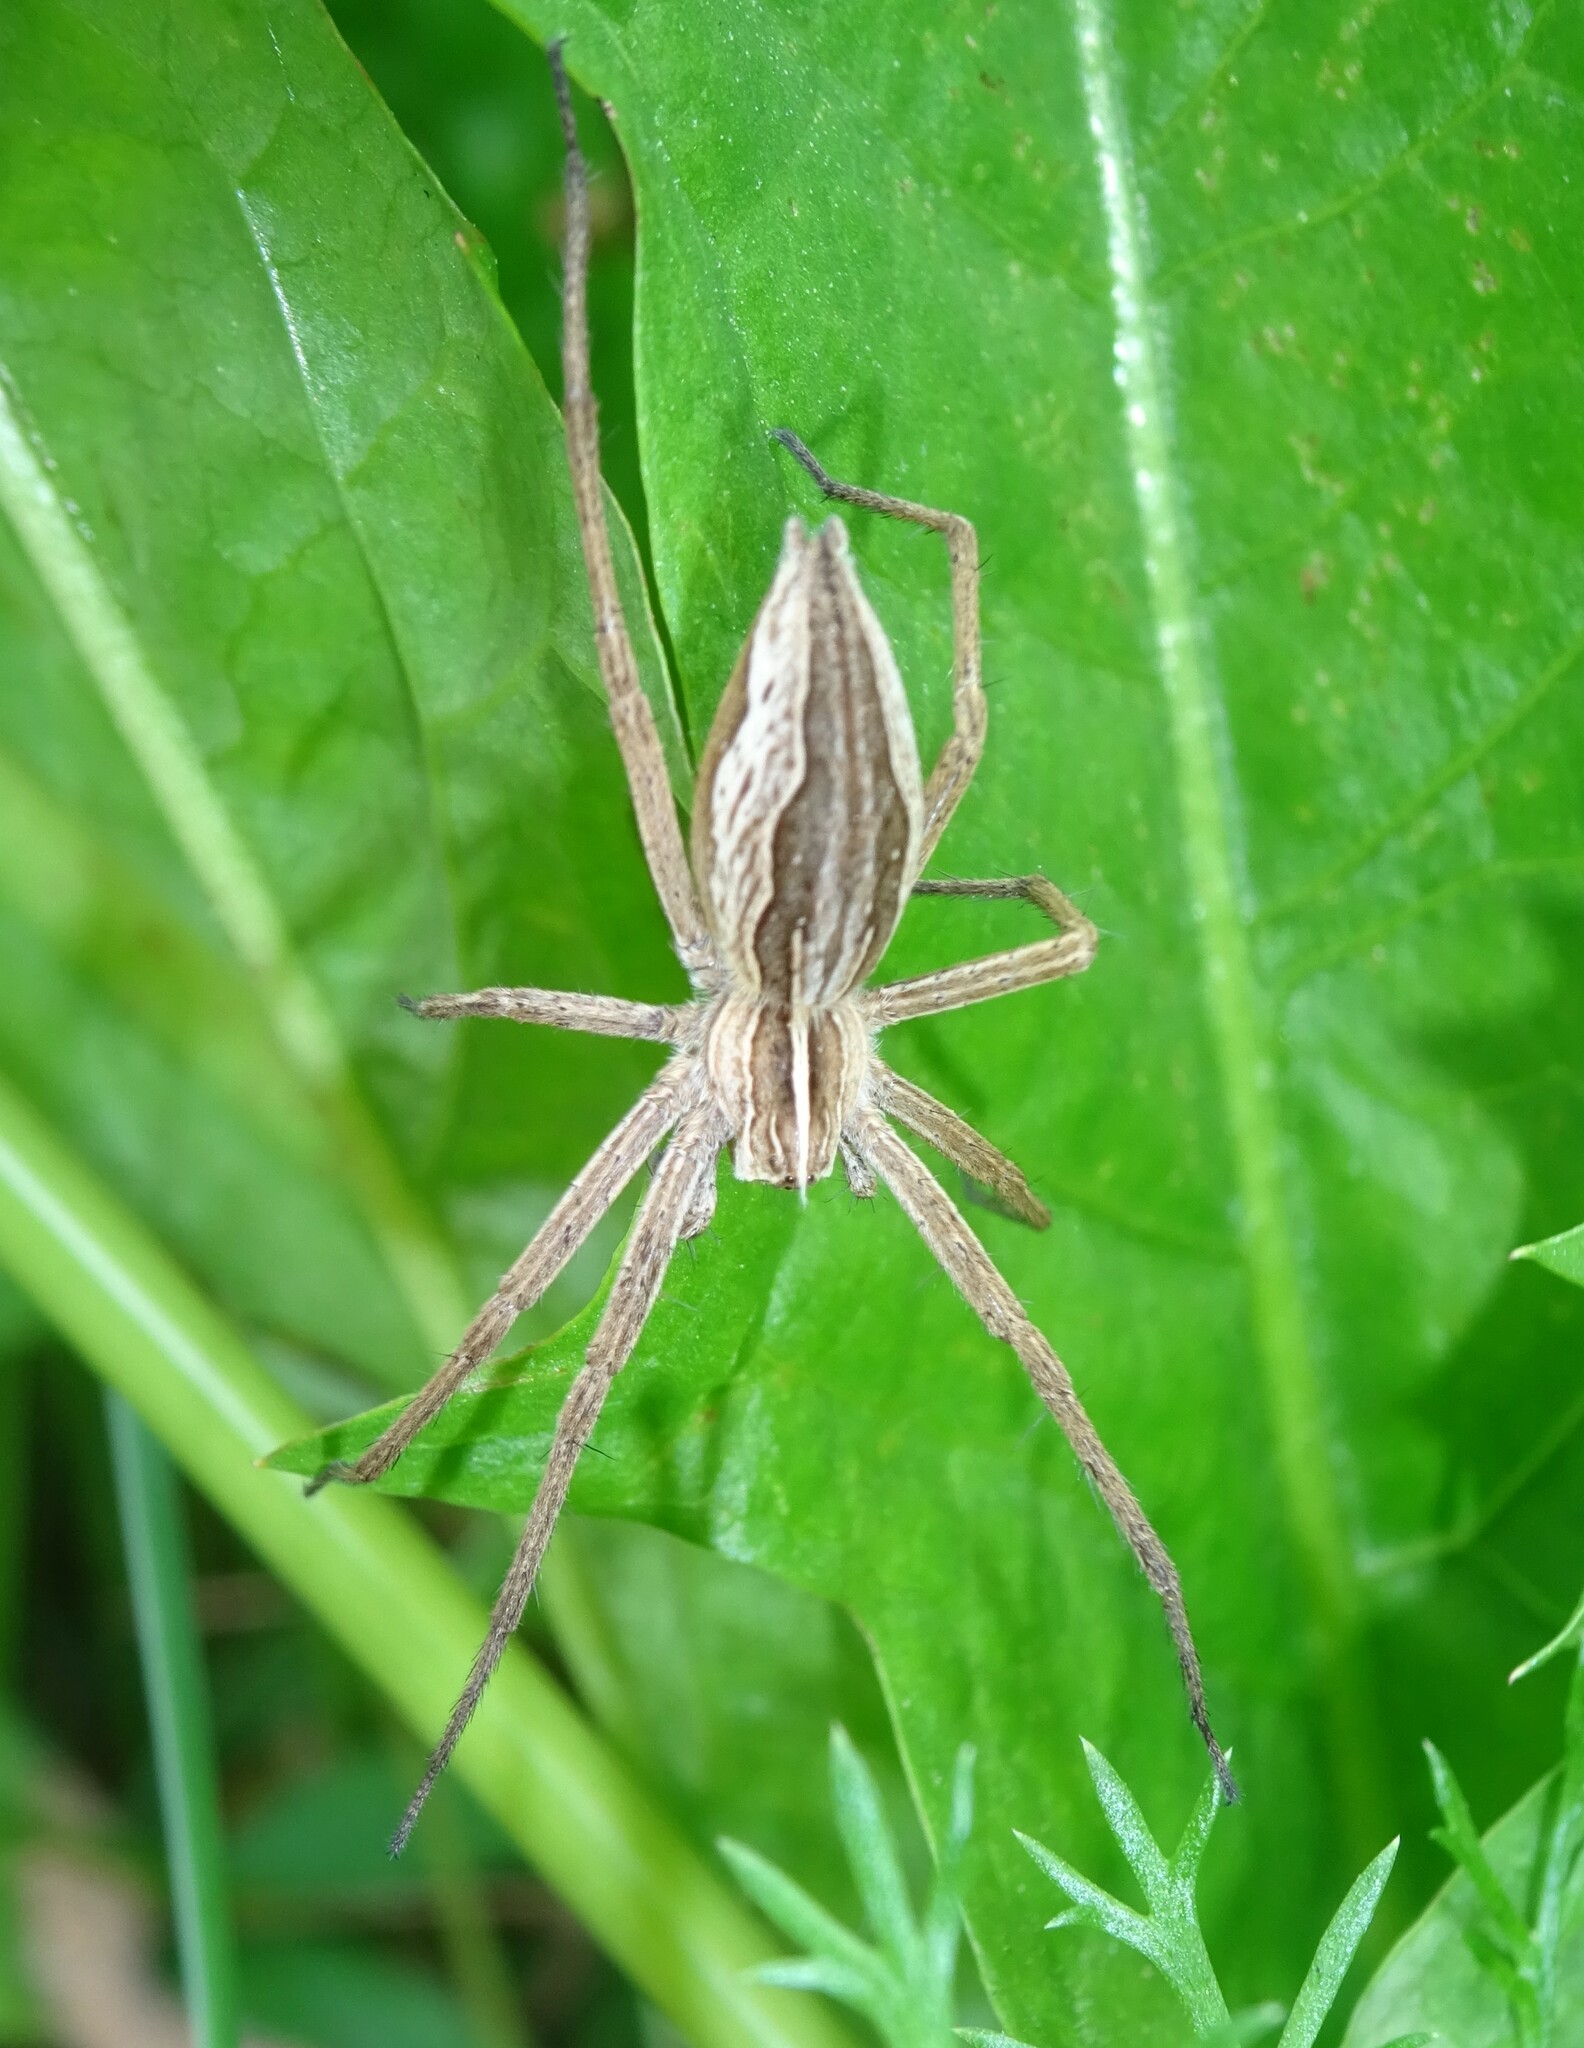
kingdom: Animalia
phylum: Arthropoda
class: Arachnida
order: Araneae
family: Pisauridae
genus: Pisaura
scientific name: Pisaura mirabilis
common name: Tent spider
